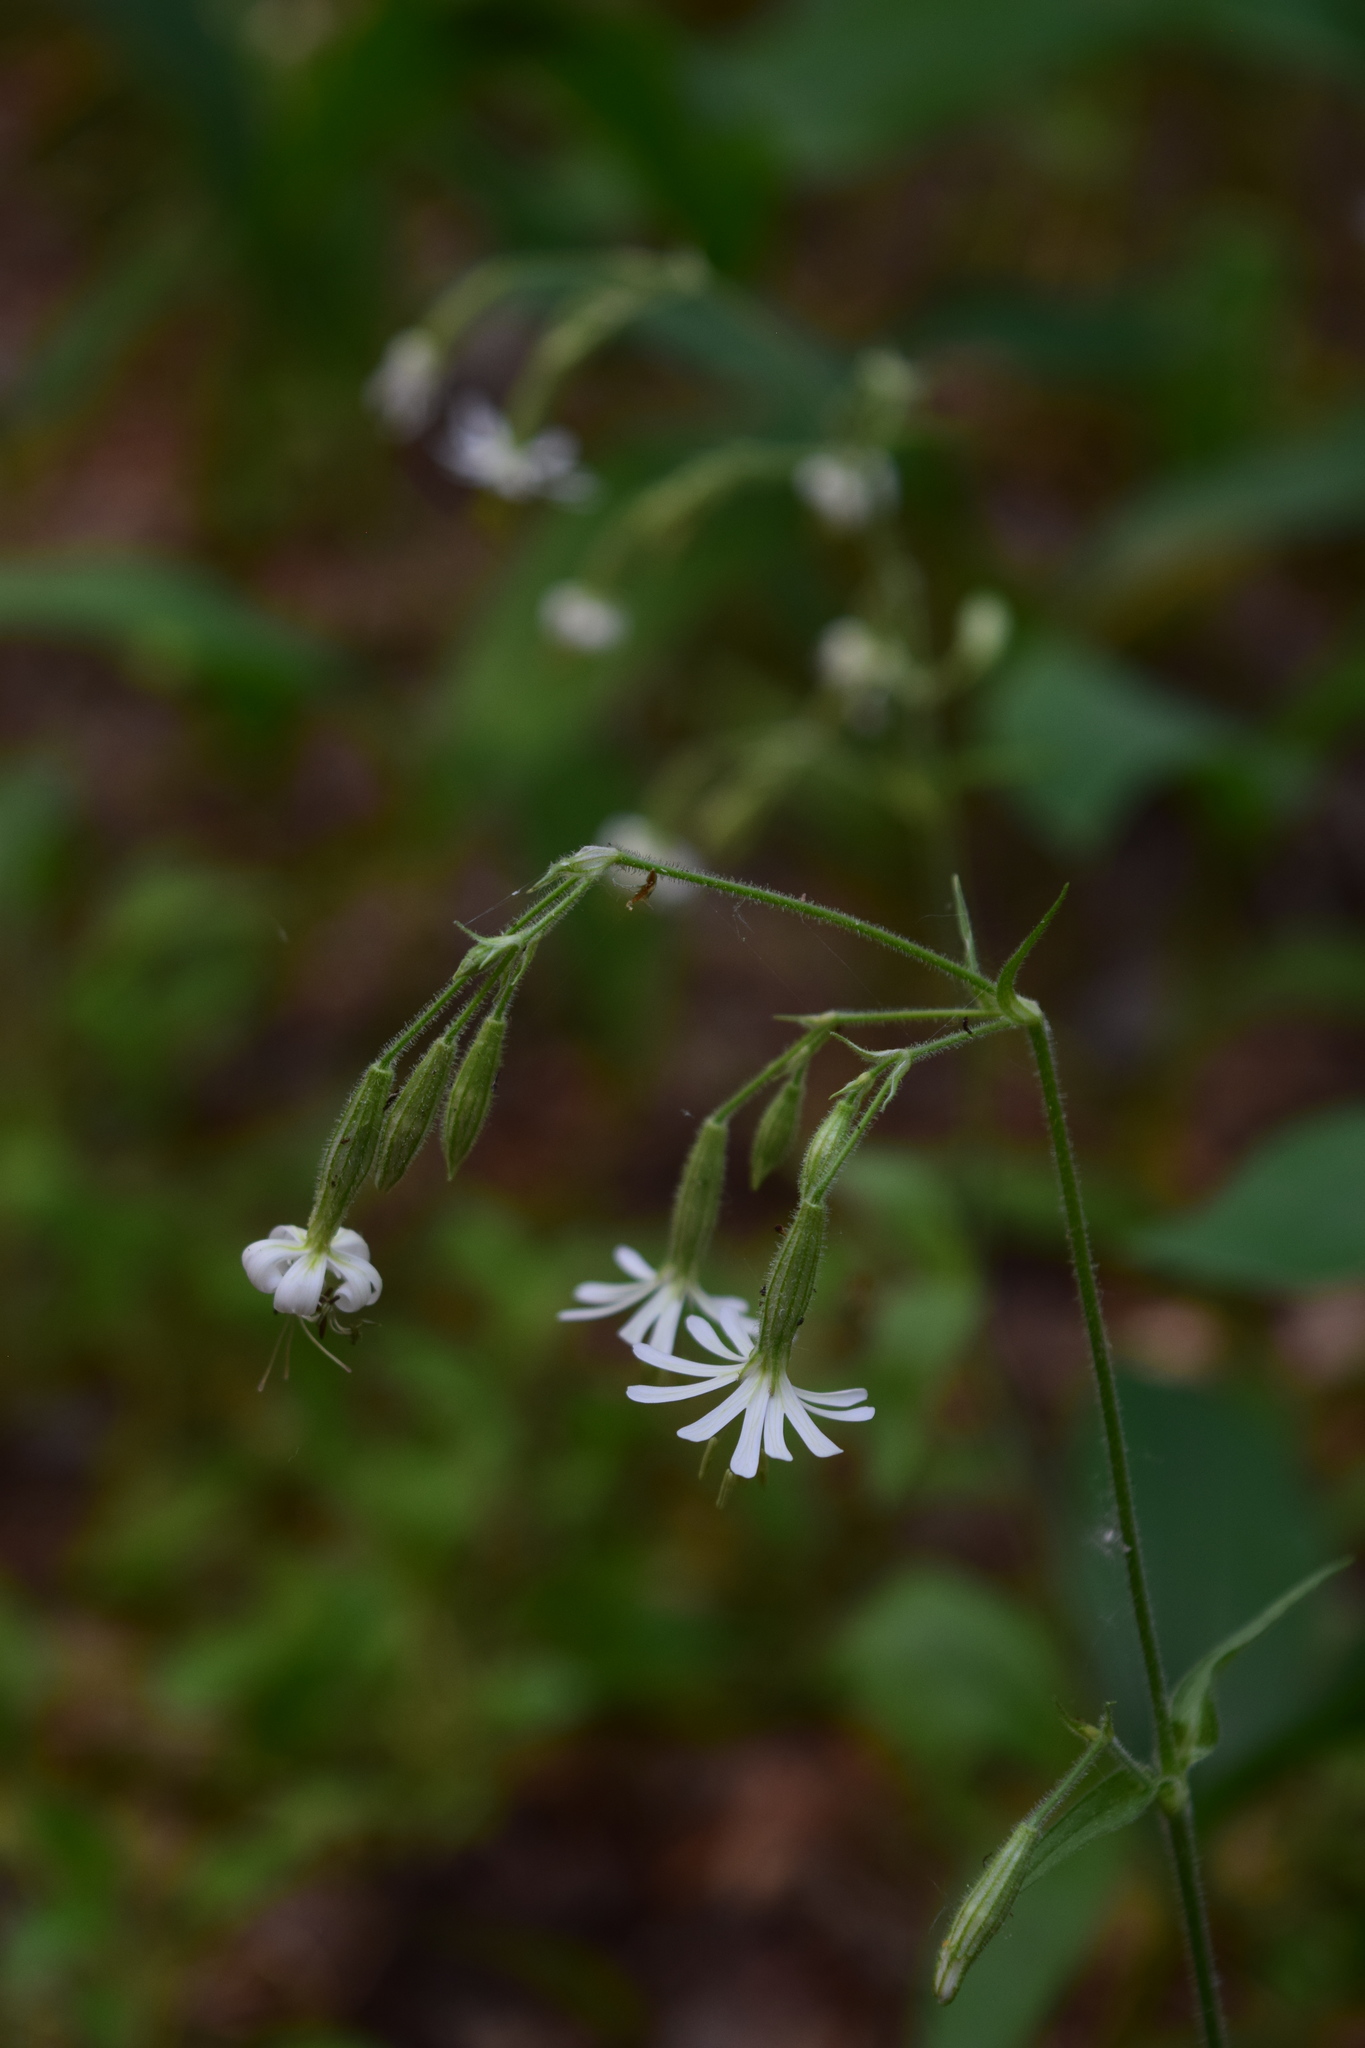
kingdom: Plantae
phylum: Tracheophyta
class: Magnoliopsida
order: Caryophyllales
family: Caryophyllaceae
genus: Silene
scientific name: Silene nutans
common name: Nottingham catchfly
